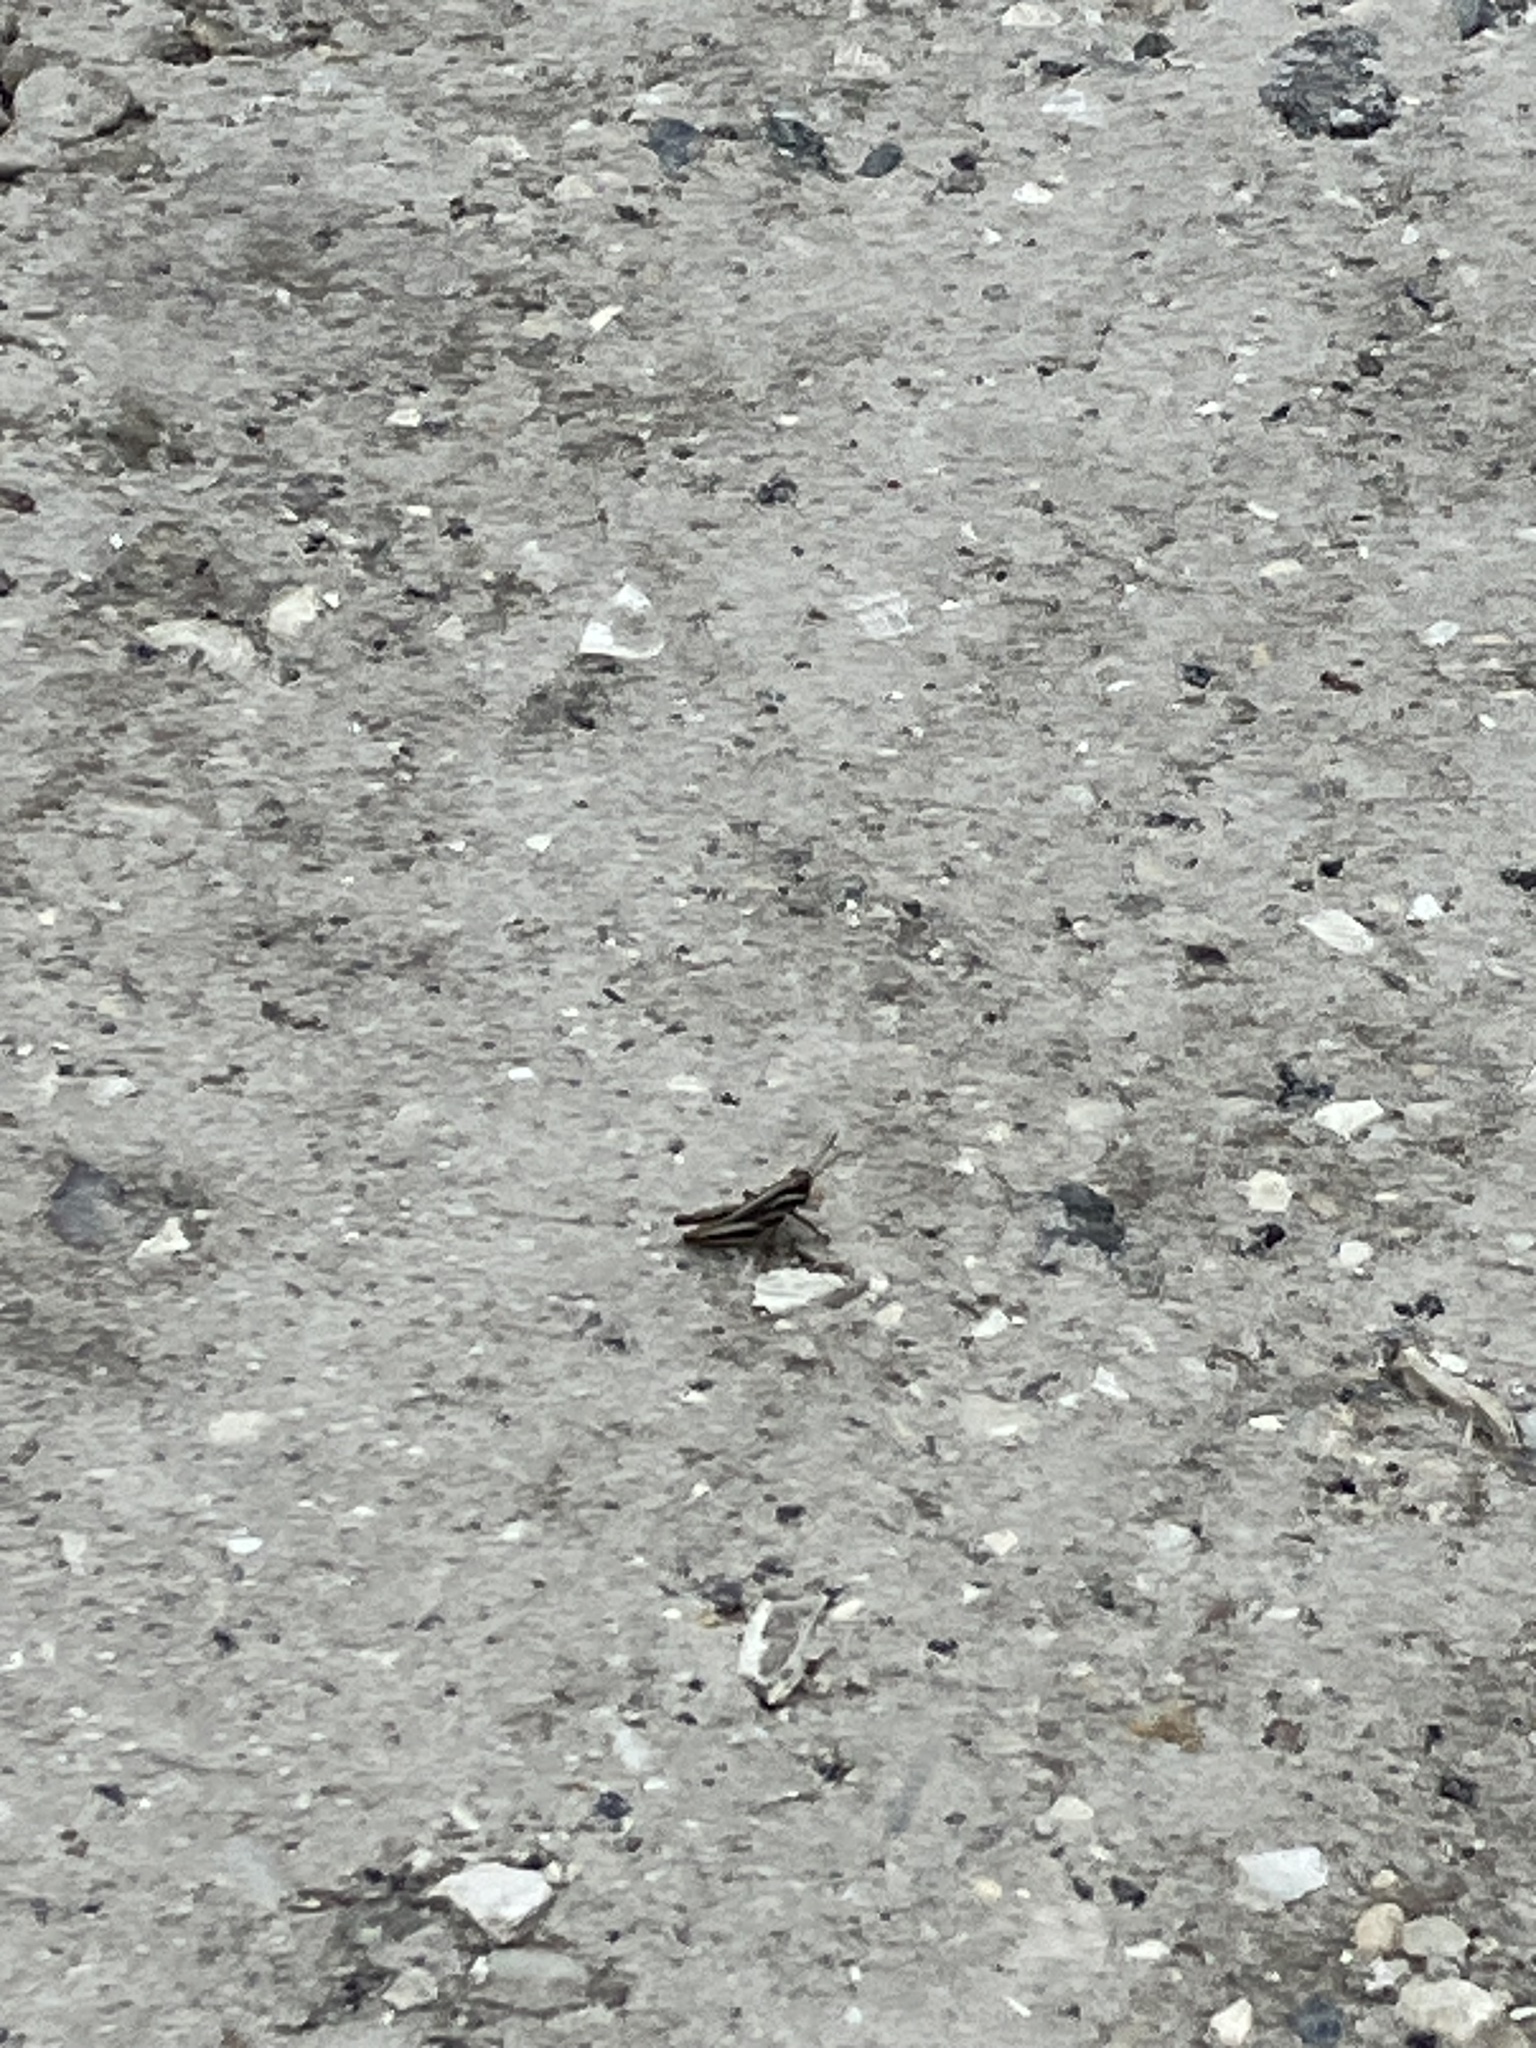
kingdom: Animalia
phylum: Arthropoda
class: Insecta
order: Orthoptera
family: Acrididae
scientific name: Acrididae
